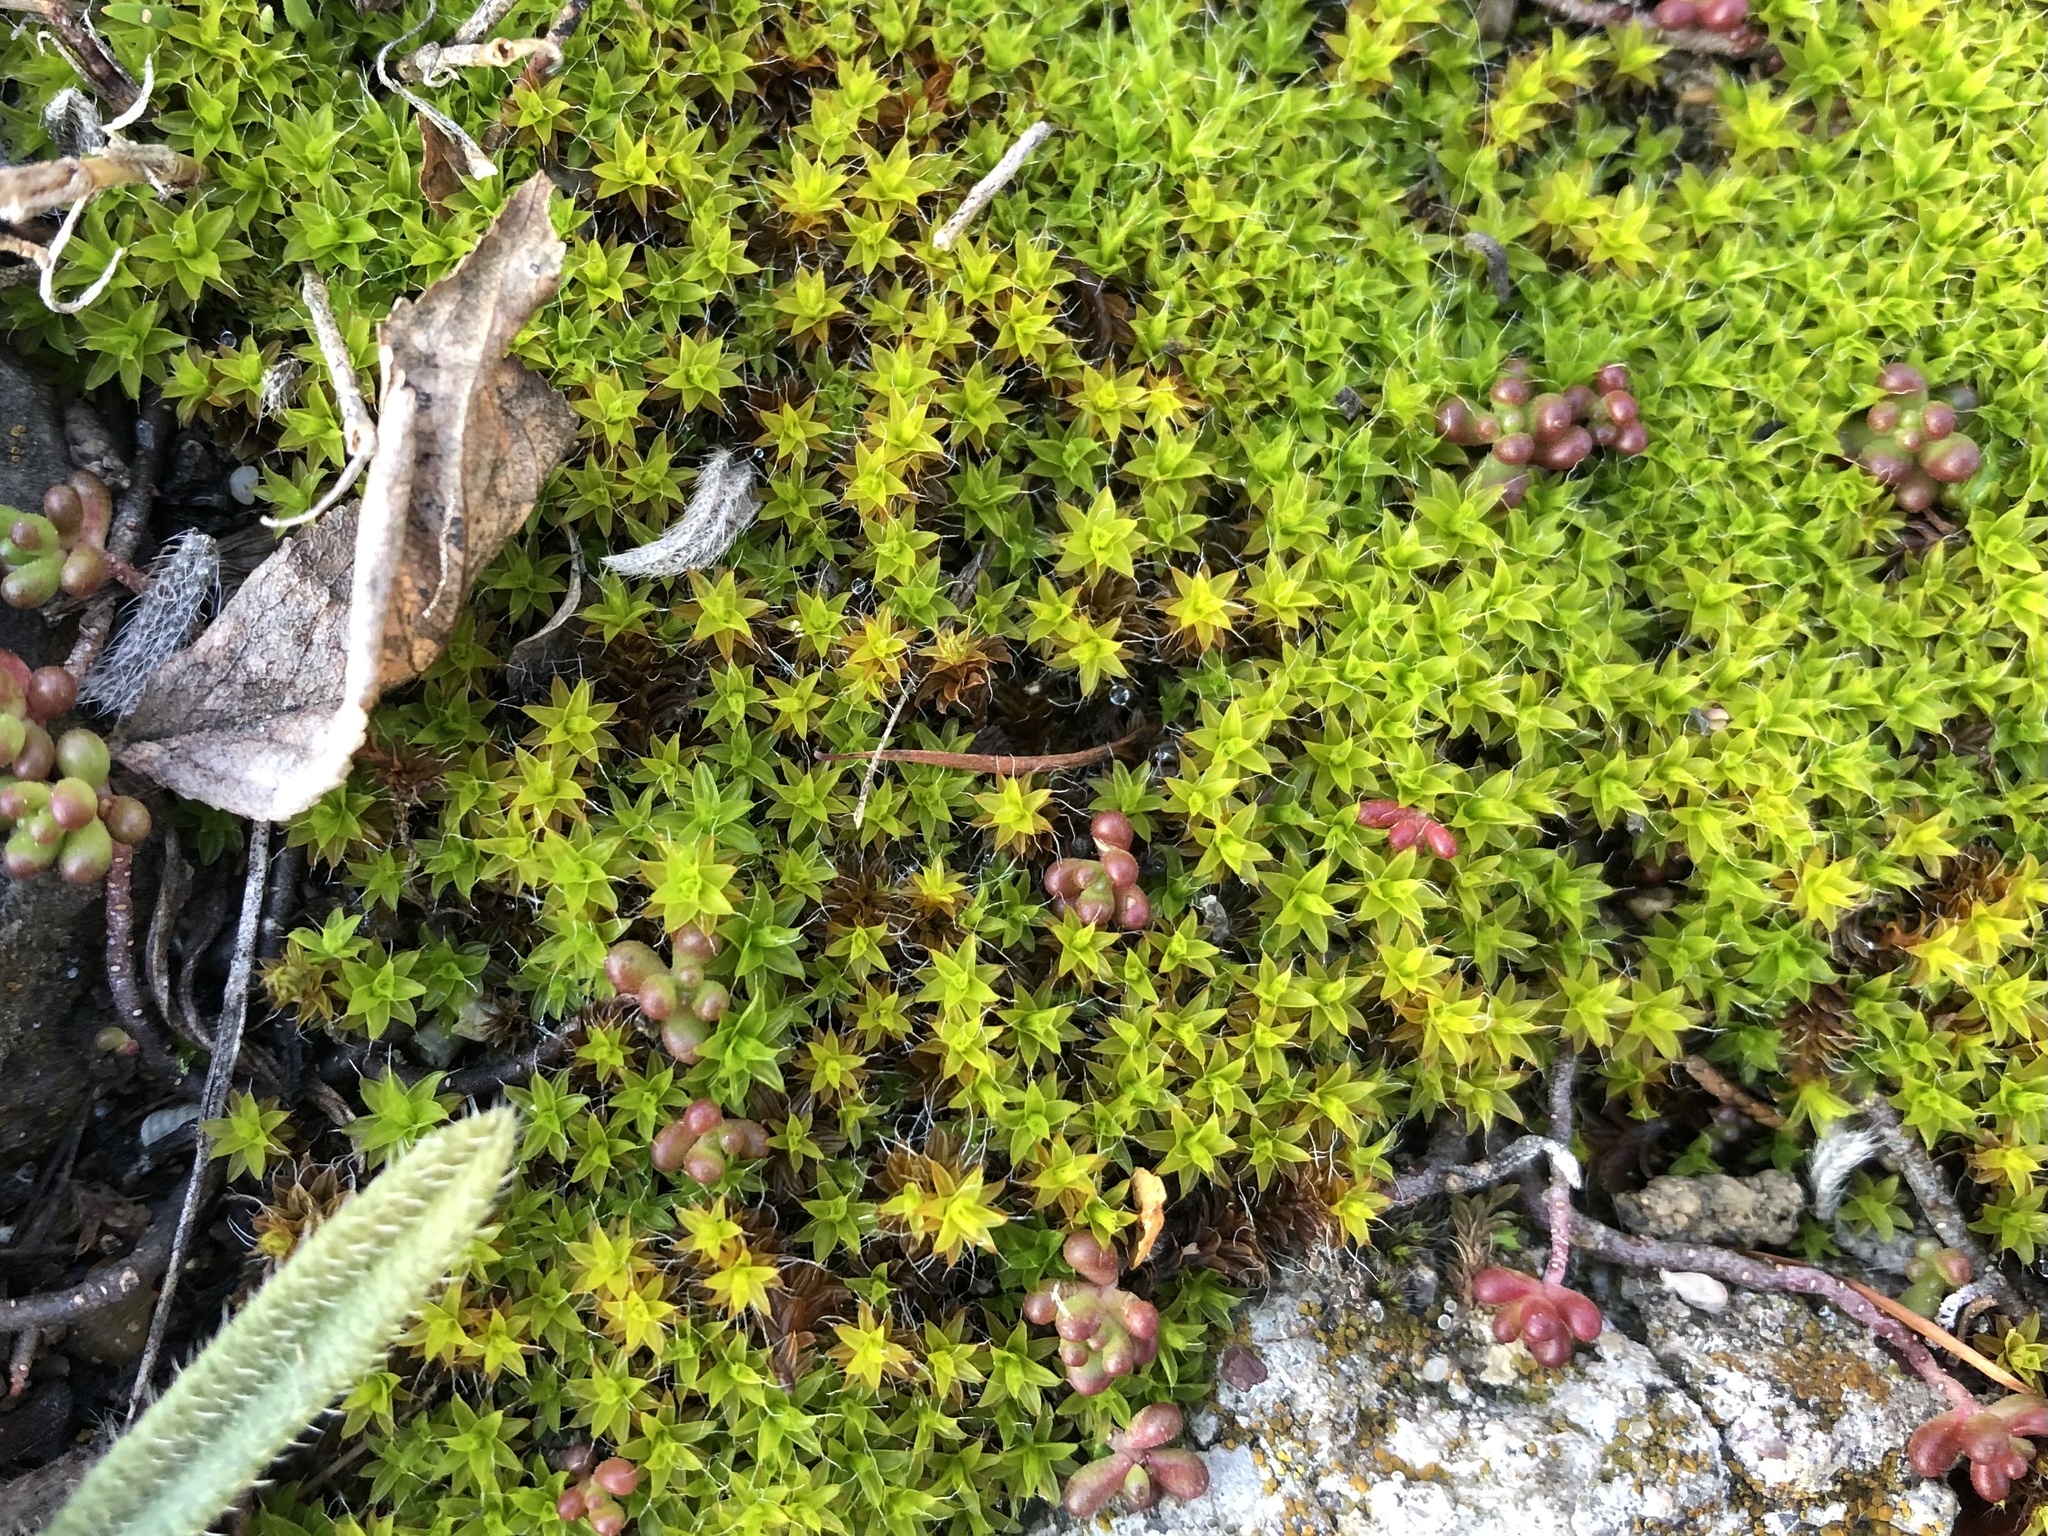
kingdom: Plantae
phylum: Bryophyta
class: Bryopsida
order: Pottiales
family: Pottiaceae
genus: Syntrichia
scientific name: Syntrichia ruralis
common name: Sidewalk screw moss
